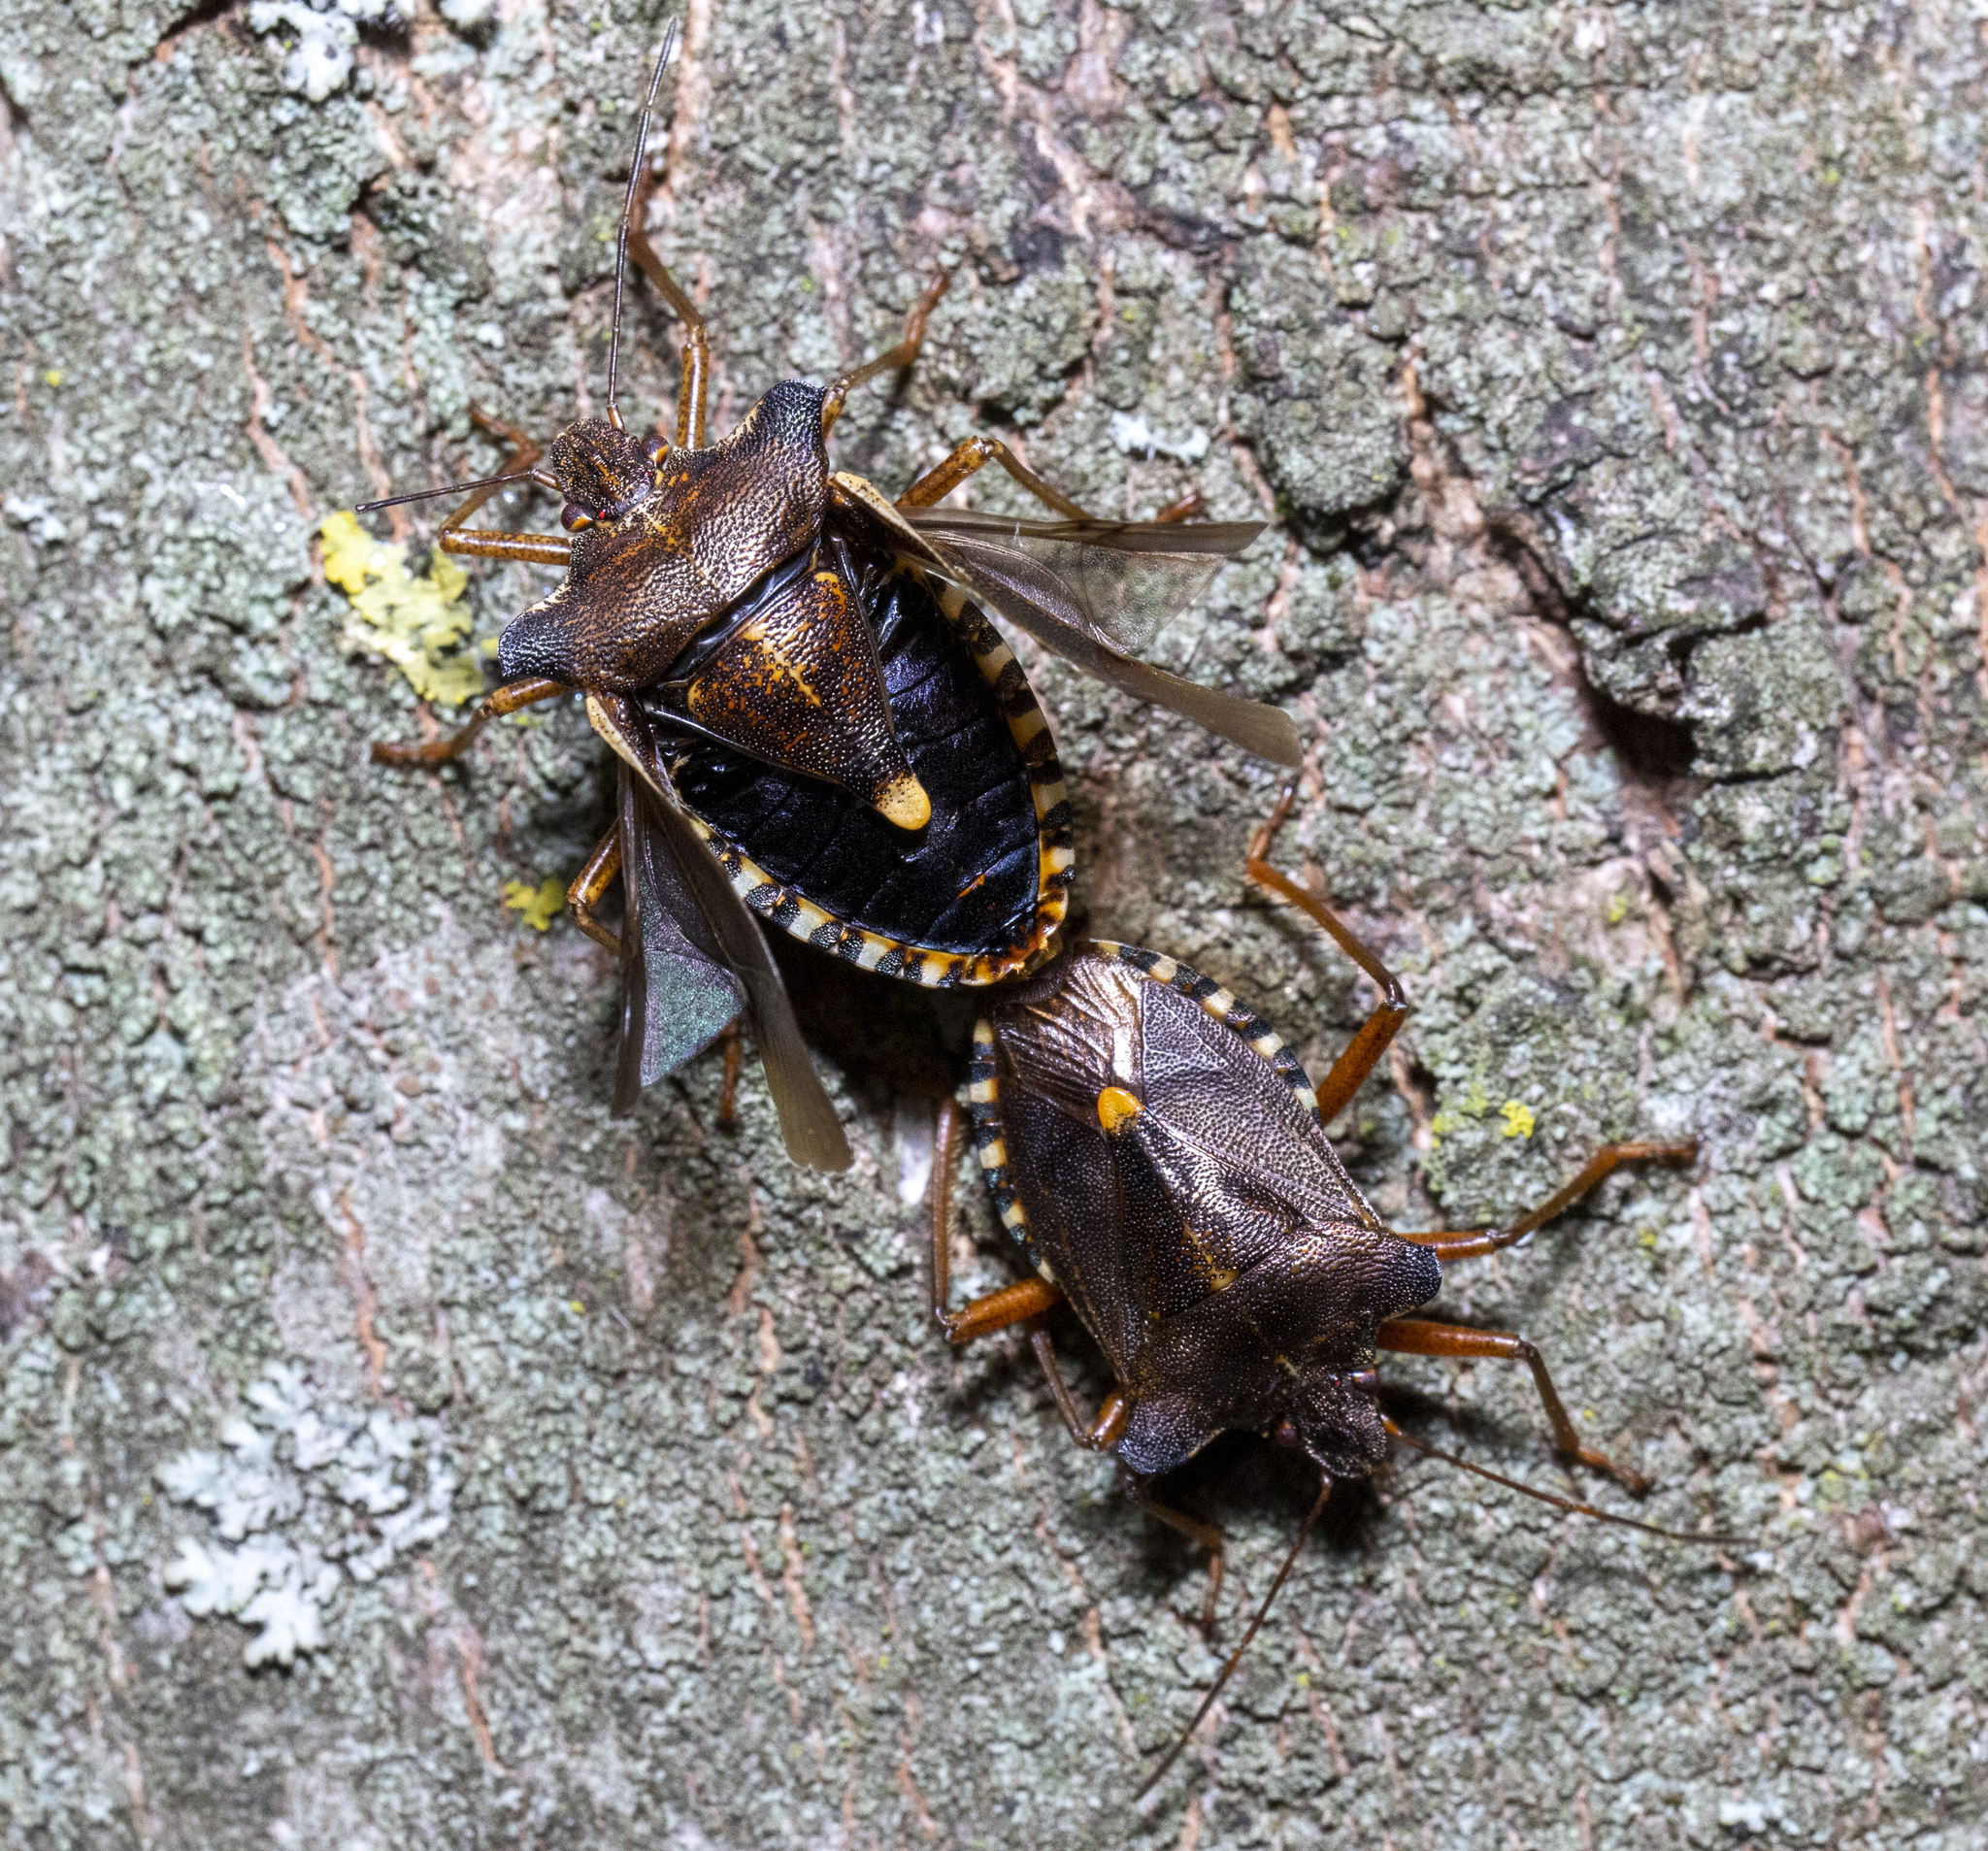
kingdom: Animalia
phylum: Arthropoda
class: Insecta
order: Hemiptera
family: Pentatomidae
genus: Pentatoma
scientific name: Pentatoma rufipes
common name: Forest bug
